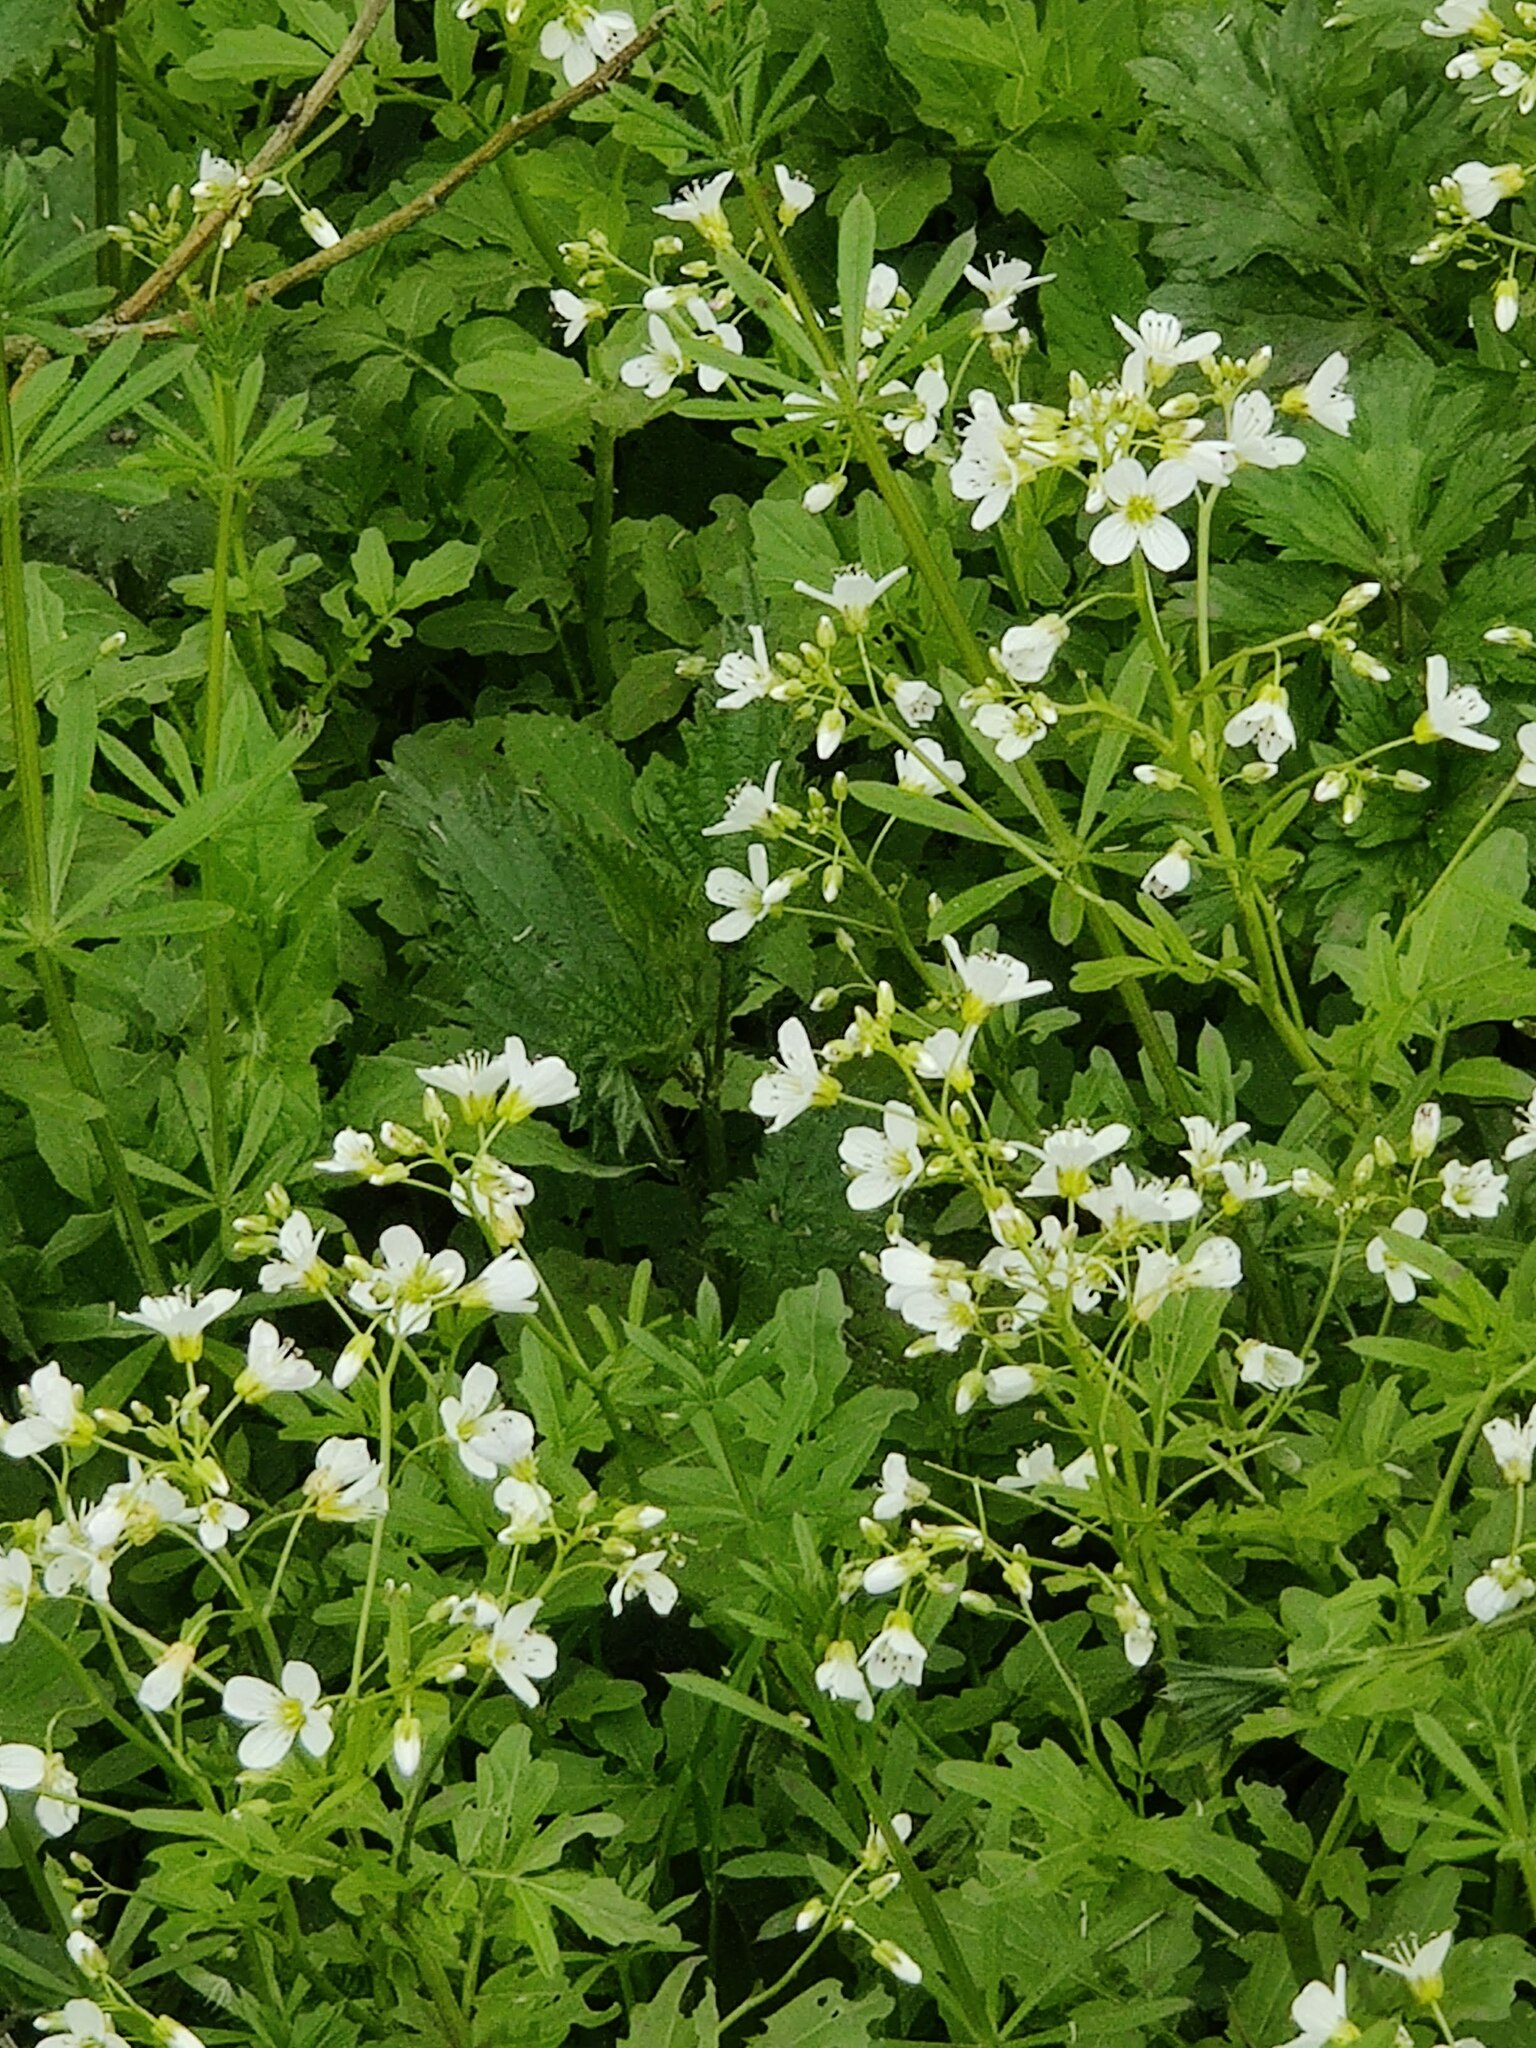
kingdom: Plantae
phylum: Tracheophyta
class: Magnoliopsida
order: Brassicales
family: Brassicaceae
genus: Cardamine
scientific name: Cardamine amara
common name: Large bitter-cress
